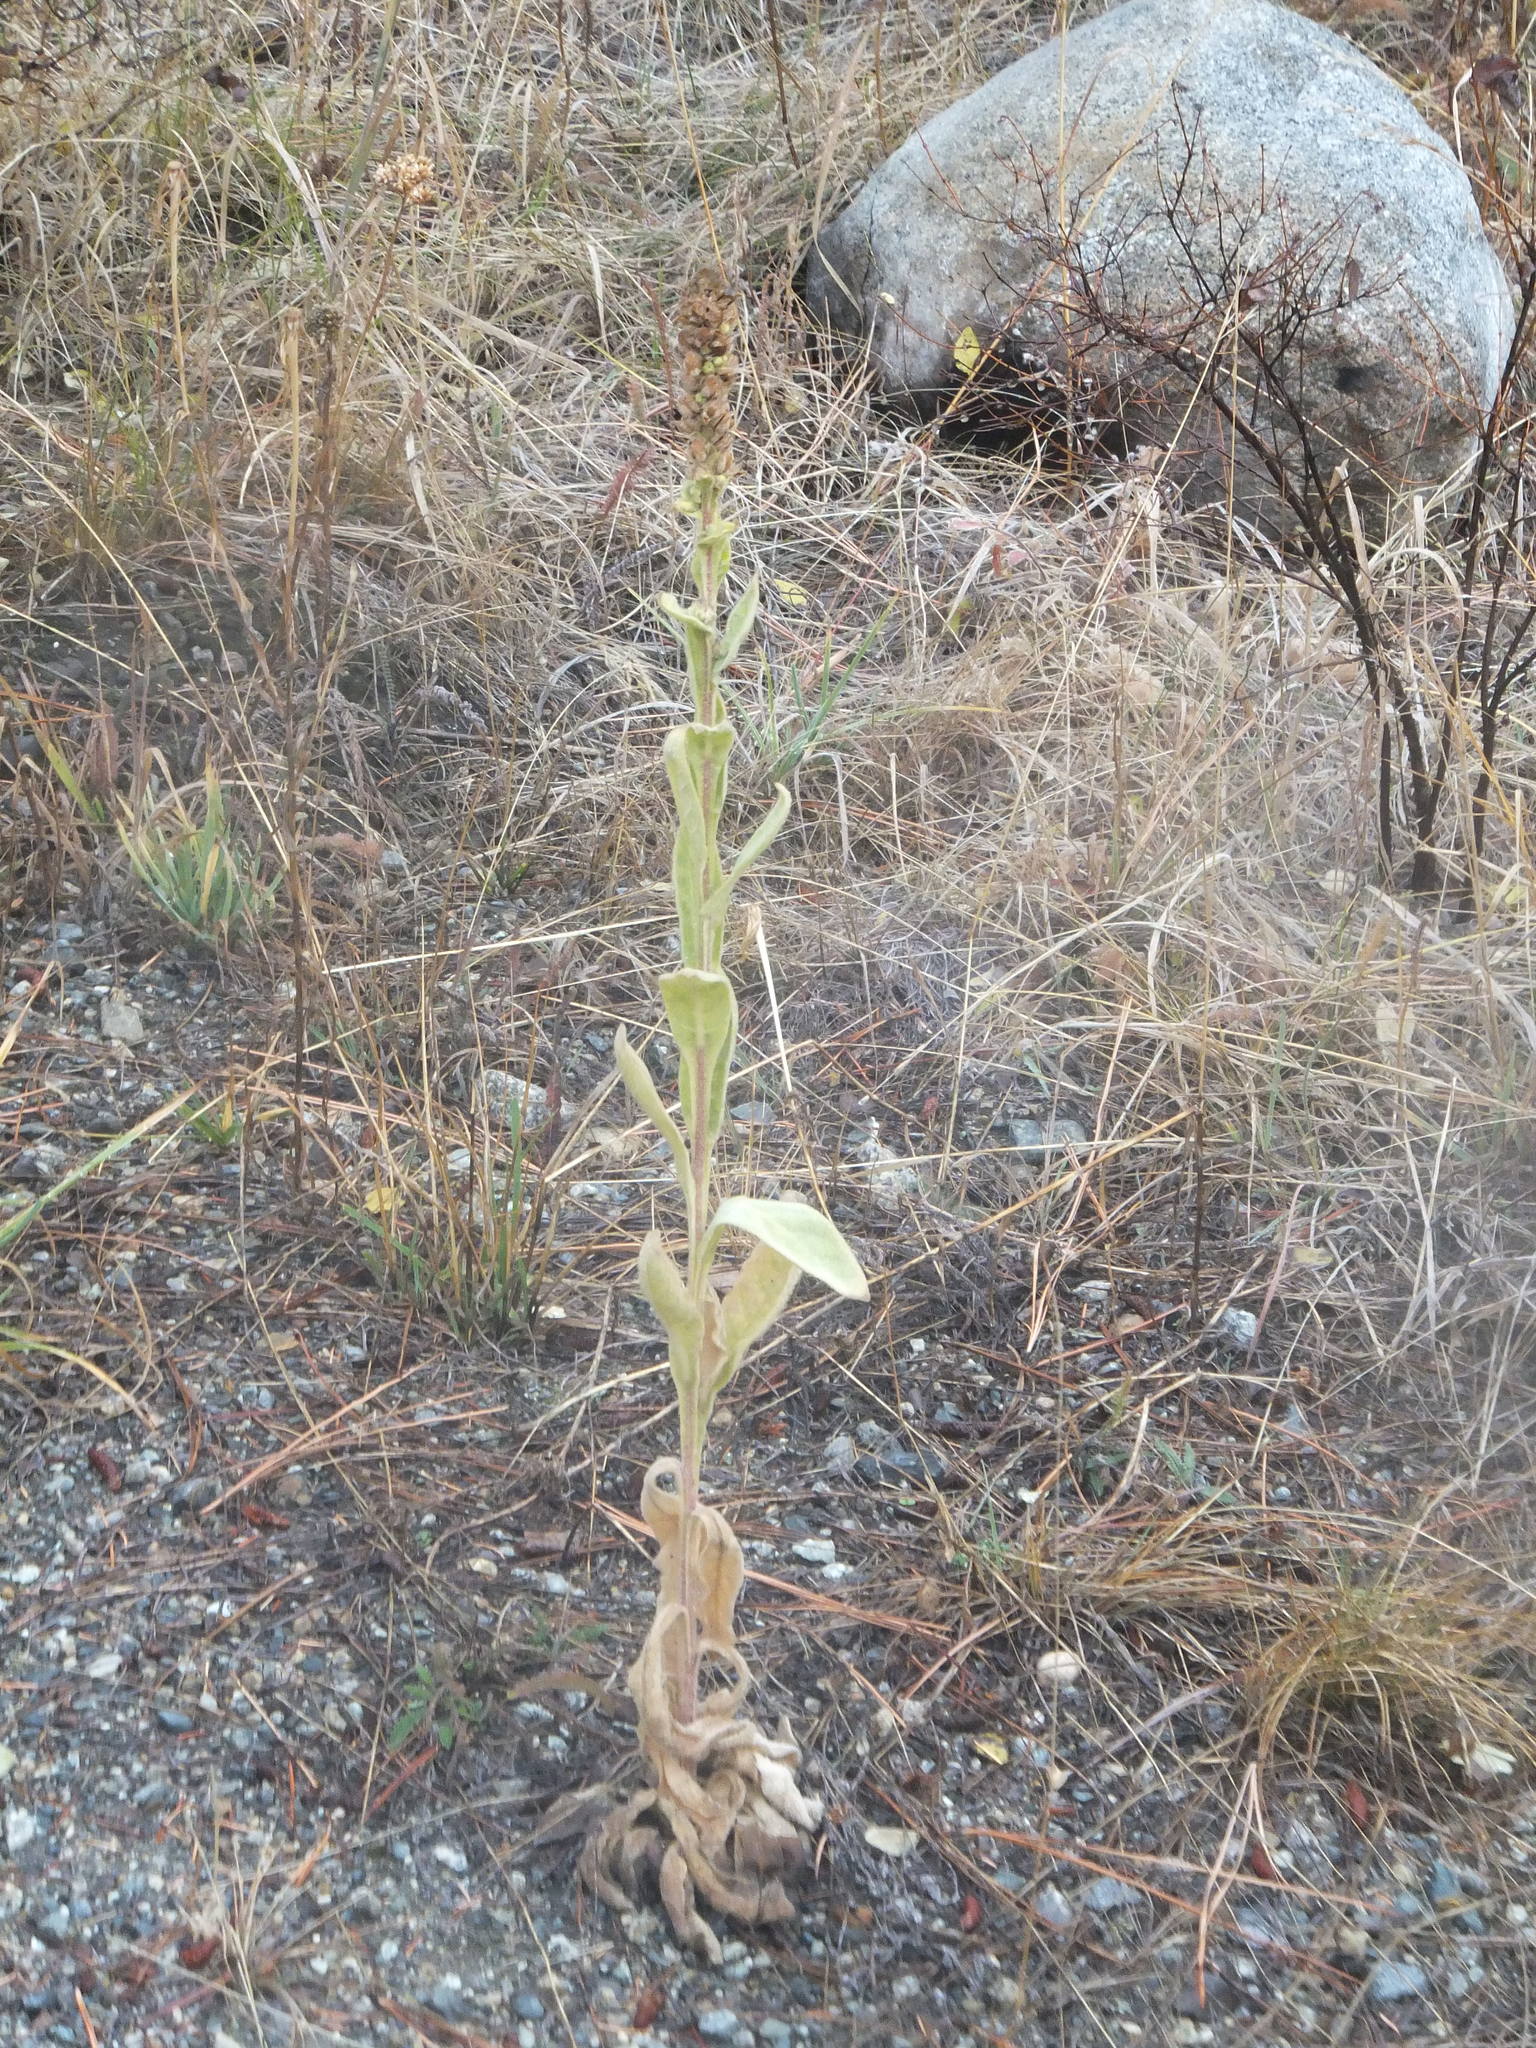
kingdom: Plantae
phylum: Tracheophyta
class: Magnoliopsida
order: Lamiales
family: Scrophulariaceae
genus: Verbascum
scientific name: Verbascum thapsus
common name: Common mullein
